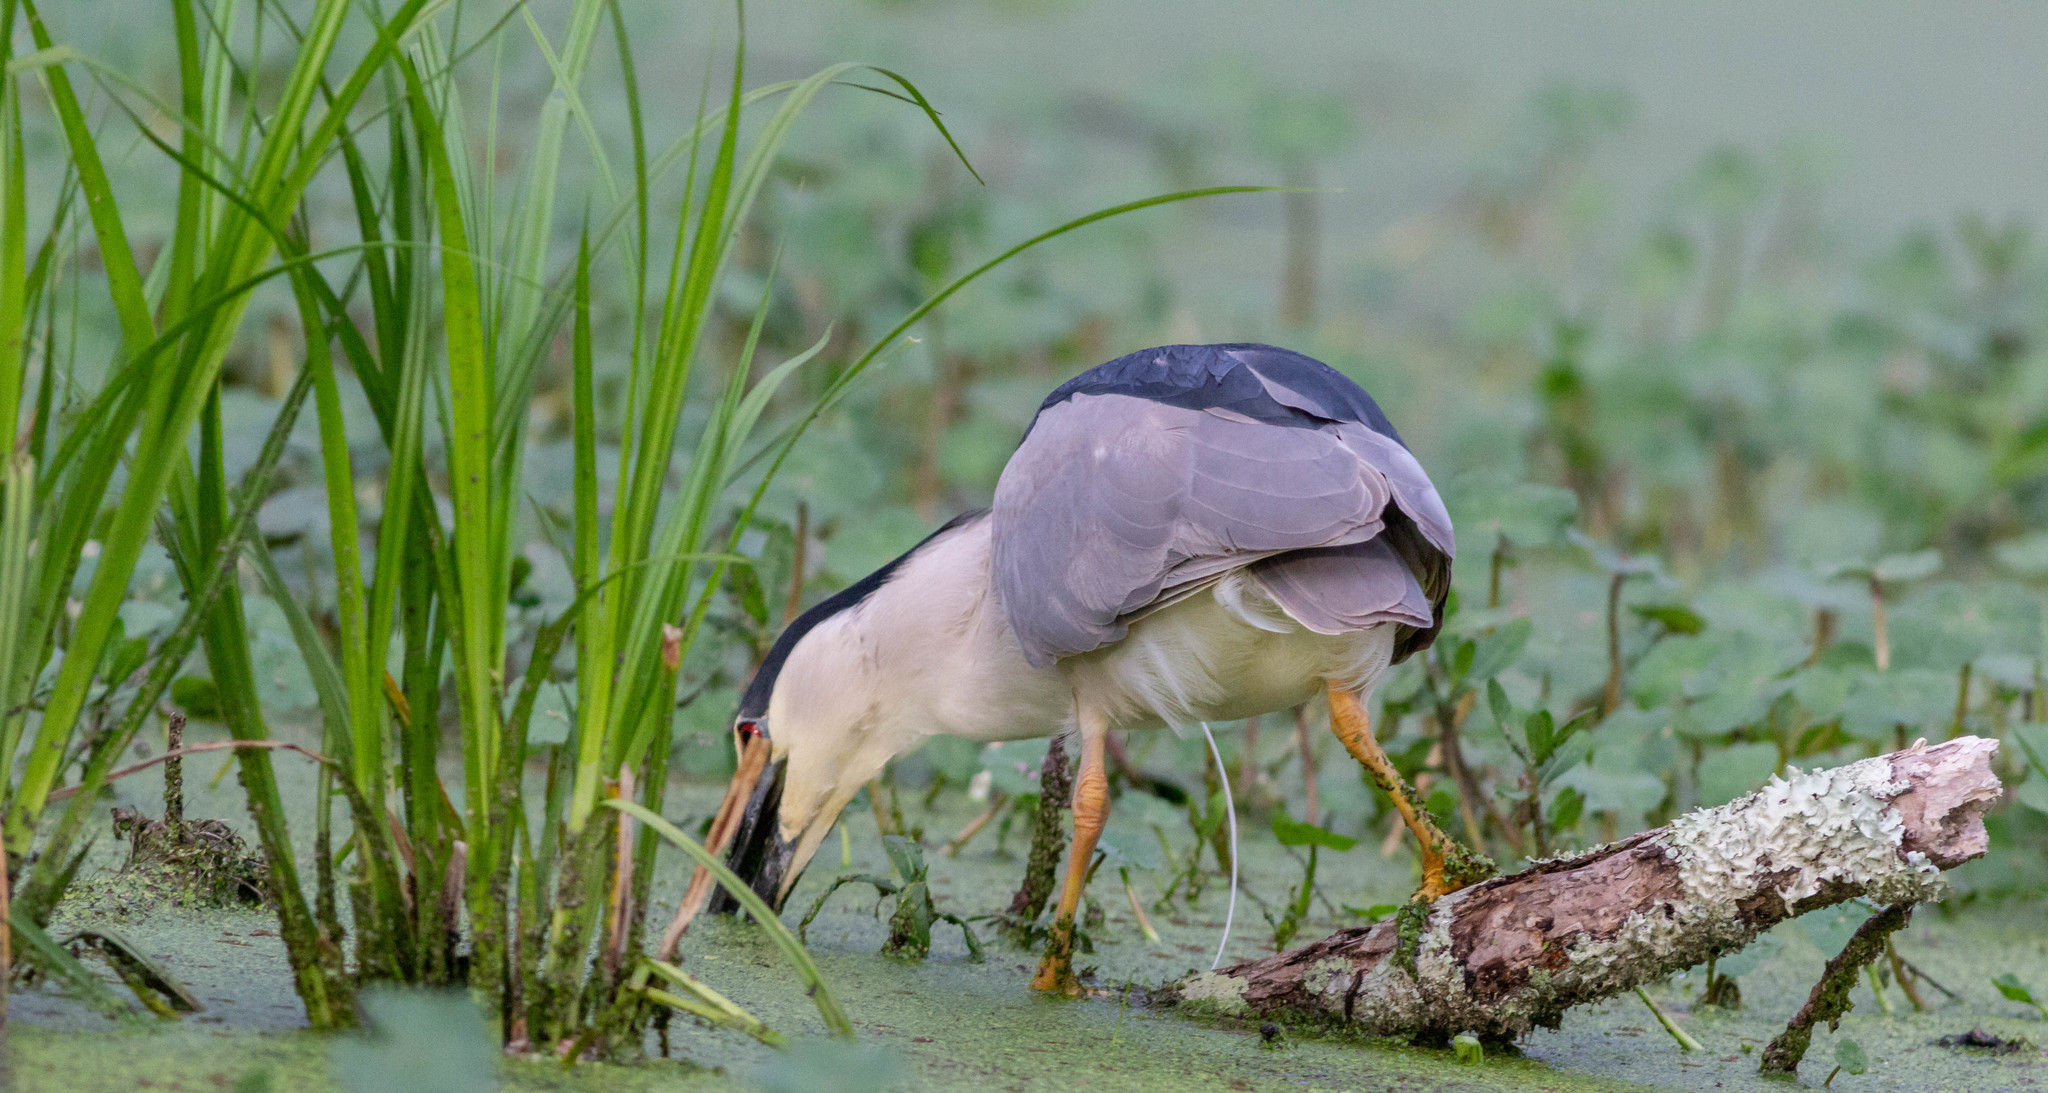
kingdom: Animalia
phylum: Chordata
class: Aves
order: Pelecaniformes
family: Ardeidae
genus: Nycticorax
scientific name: Nycticorax nycticorax
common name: Black-crowned night heron
